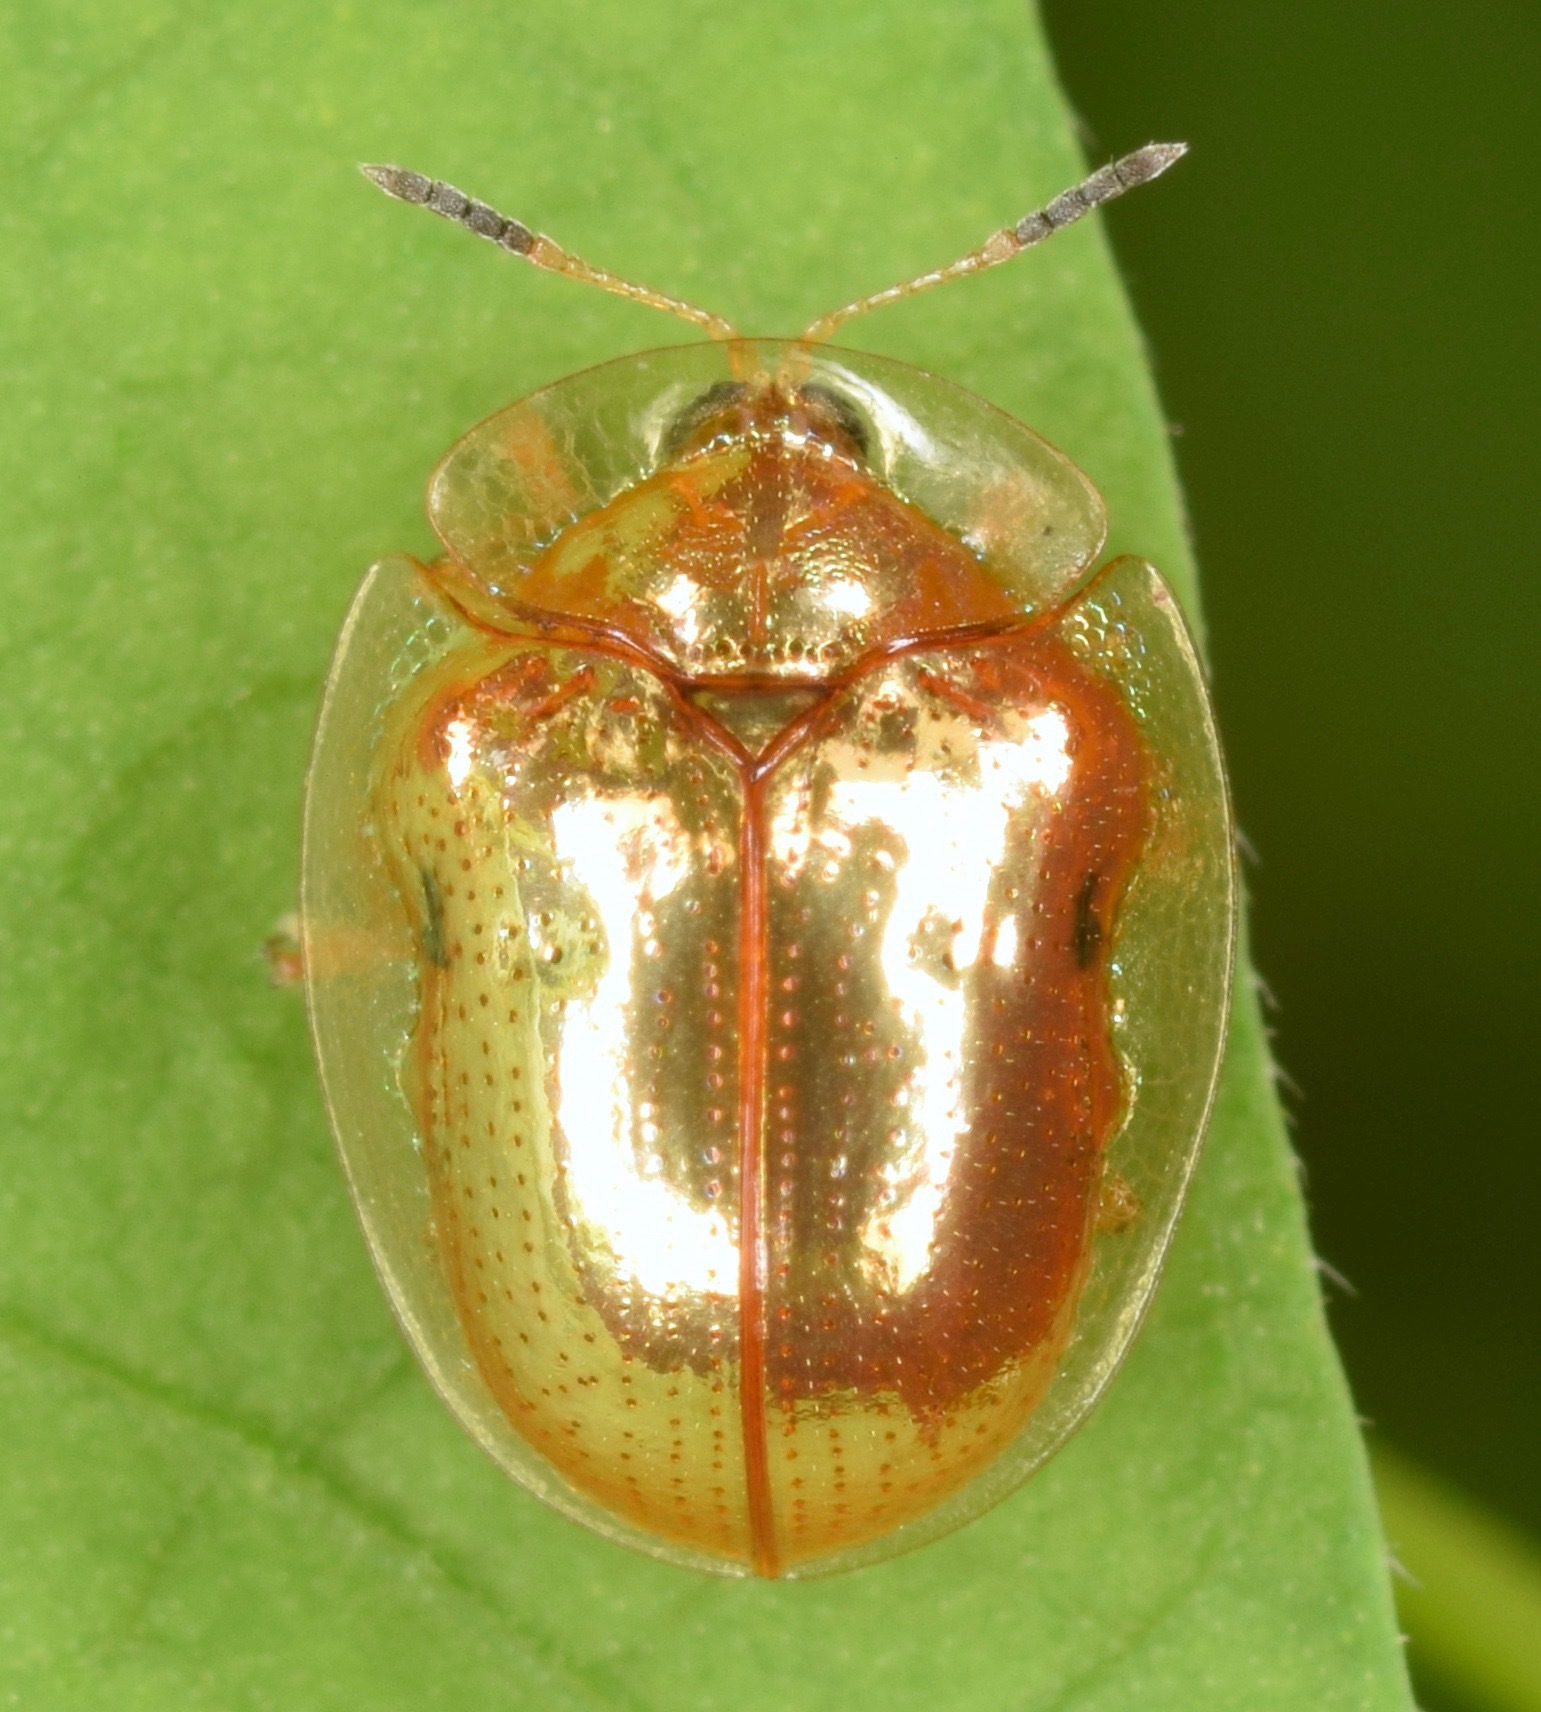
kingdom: Animalia
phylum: Arthropoda
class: Insecta
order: Coleoptera
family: Chrysomelidae
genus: Charidotella
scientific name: Charidotella sexpunctata
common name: Golden tortoise beetle
